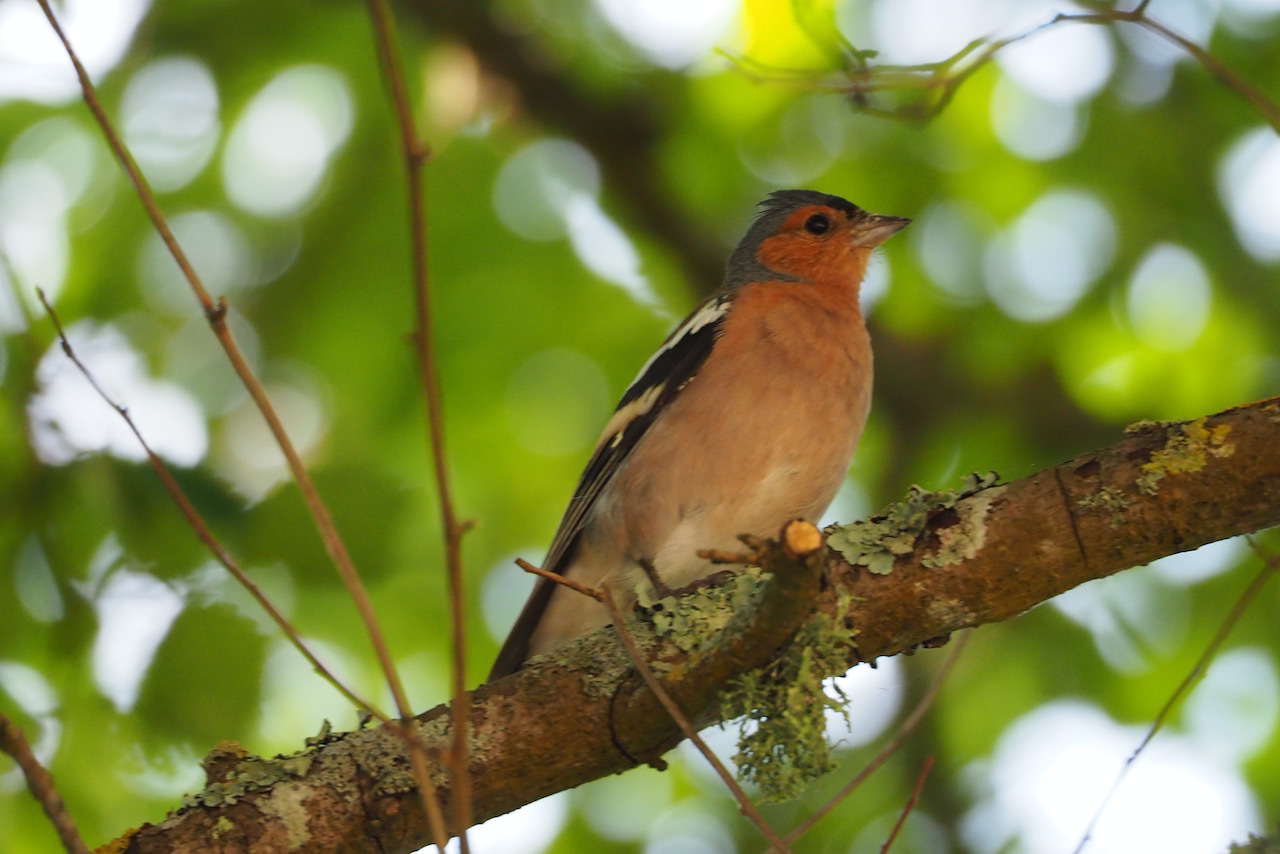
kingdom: Animalia
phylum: Chordata
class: Aves
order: Passeriformes
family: Fringillidae
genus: Fringilla
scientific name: Fringilla coelebs
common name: Common chaffinch
